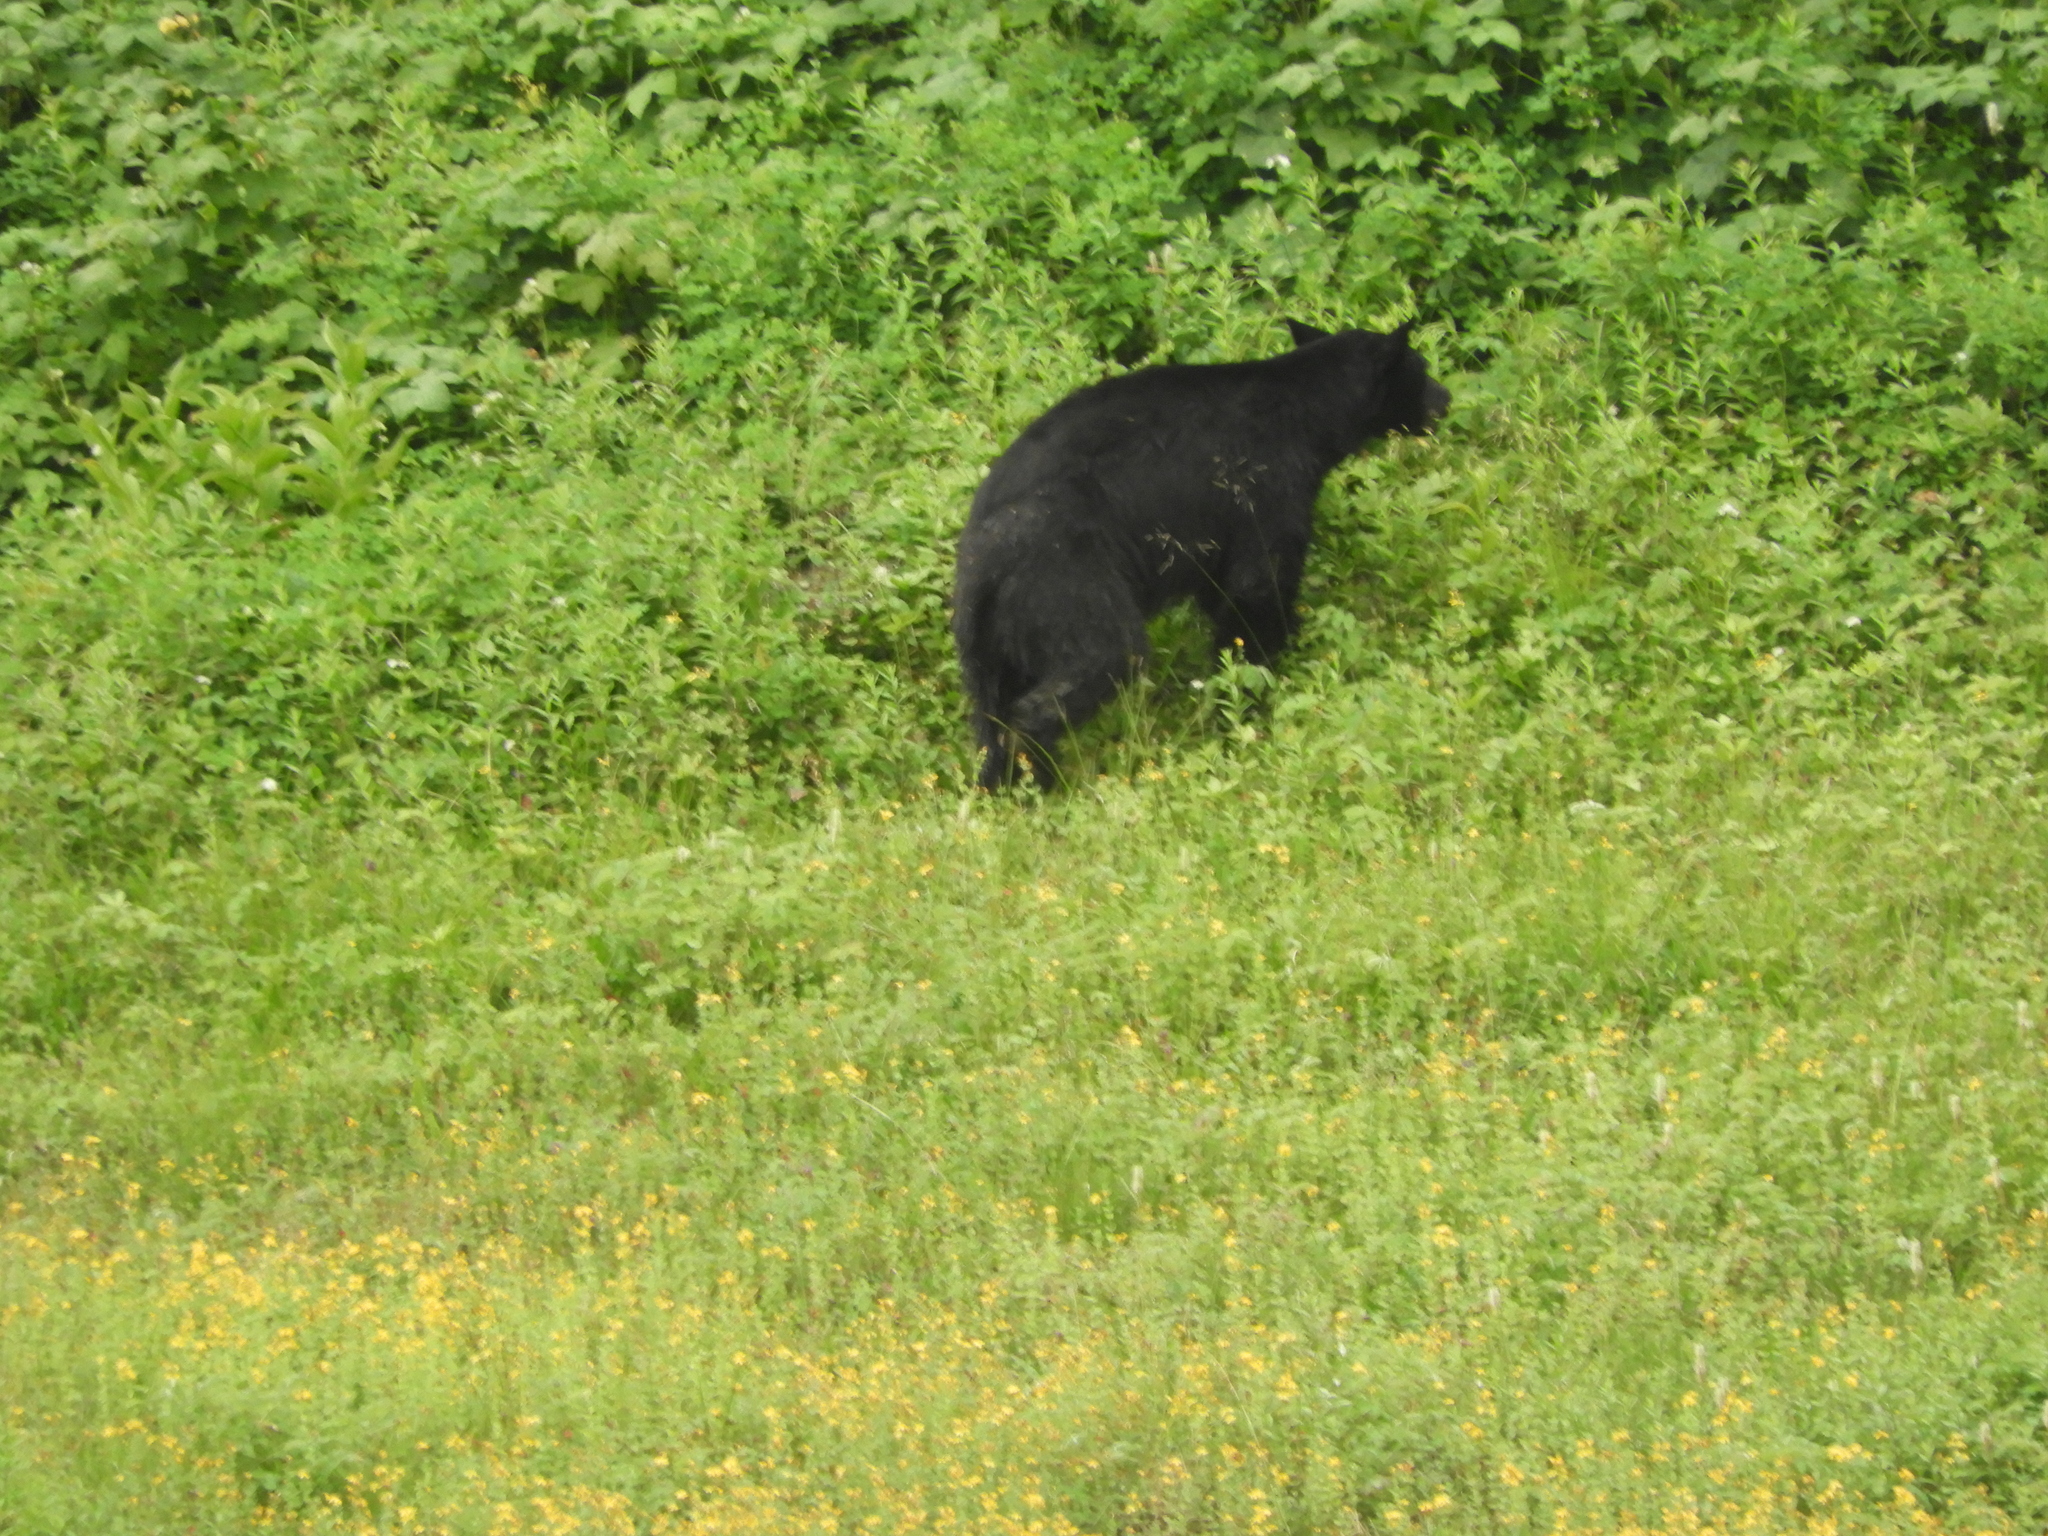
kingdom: Animalia
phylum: Chordata
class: Mammalia
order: Carnivora
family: Ursidae
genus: Ursus
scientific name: Ursus americanus
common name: American black bear
